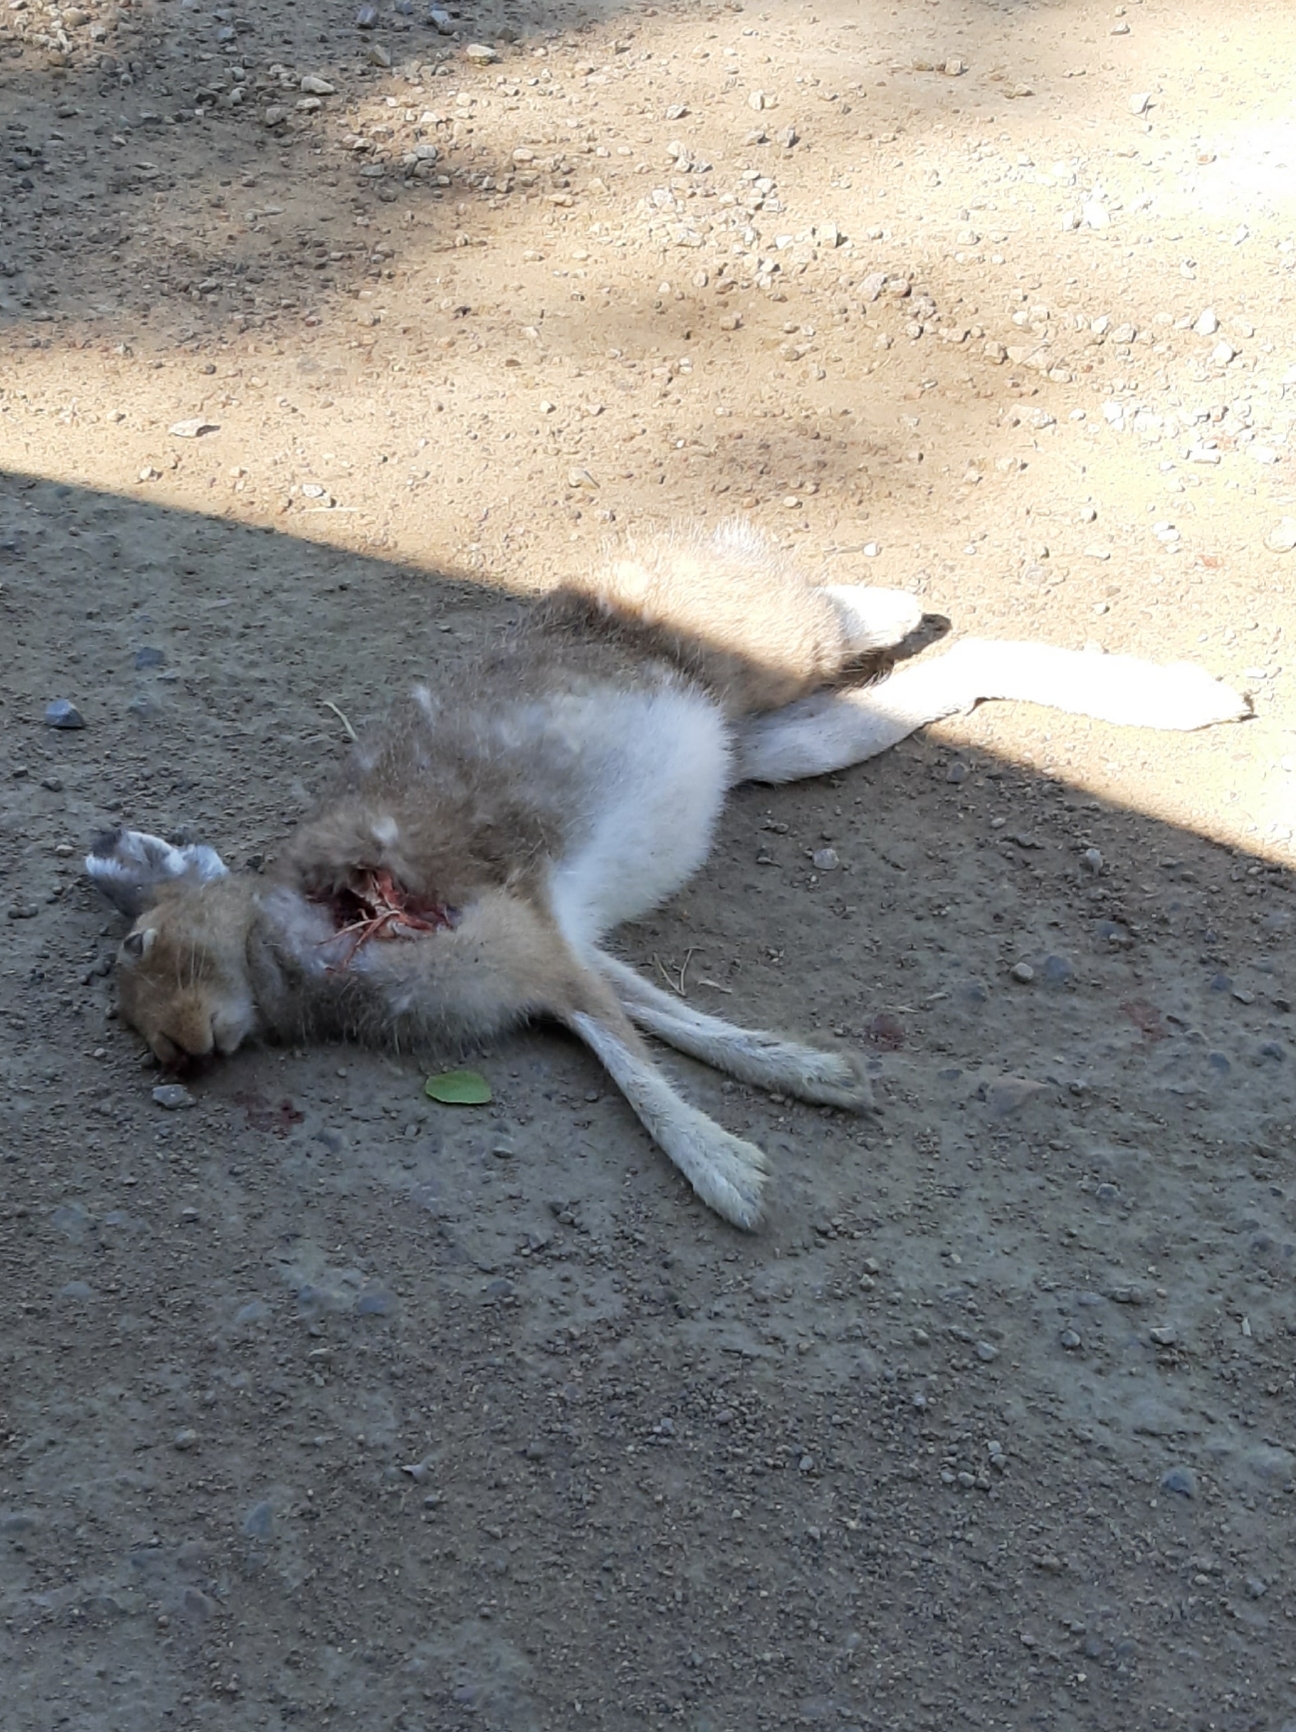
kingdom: Animalia
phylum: Chordata
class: Mammalia
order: Lagomorpha
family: Leporidae
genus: Lepus
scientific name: Lepus timidus
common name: Mountain hare
